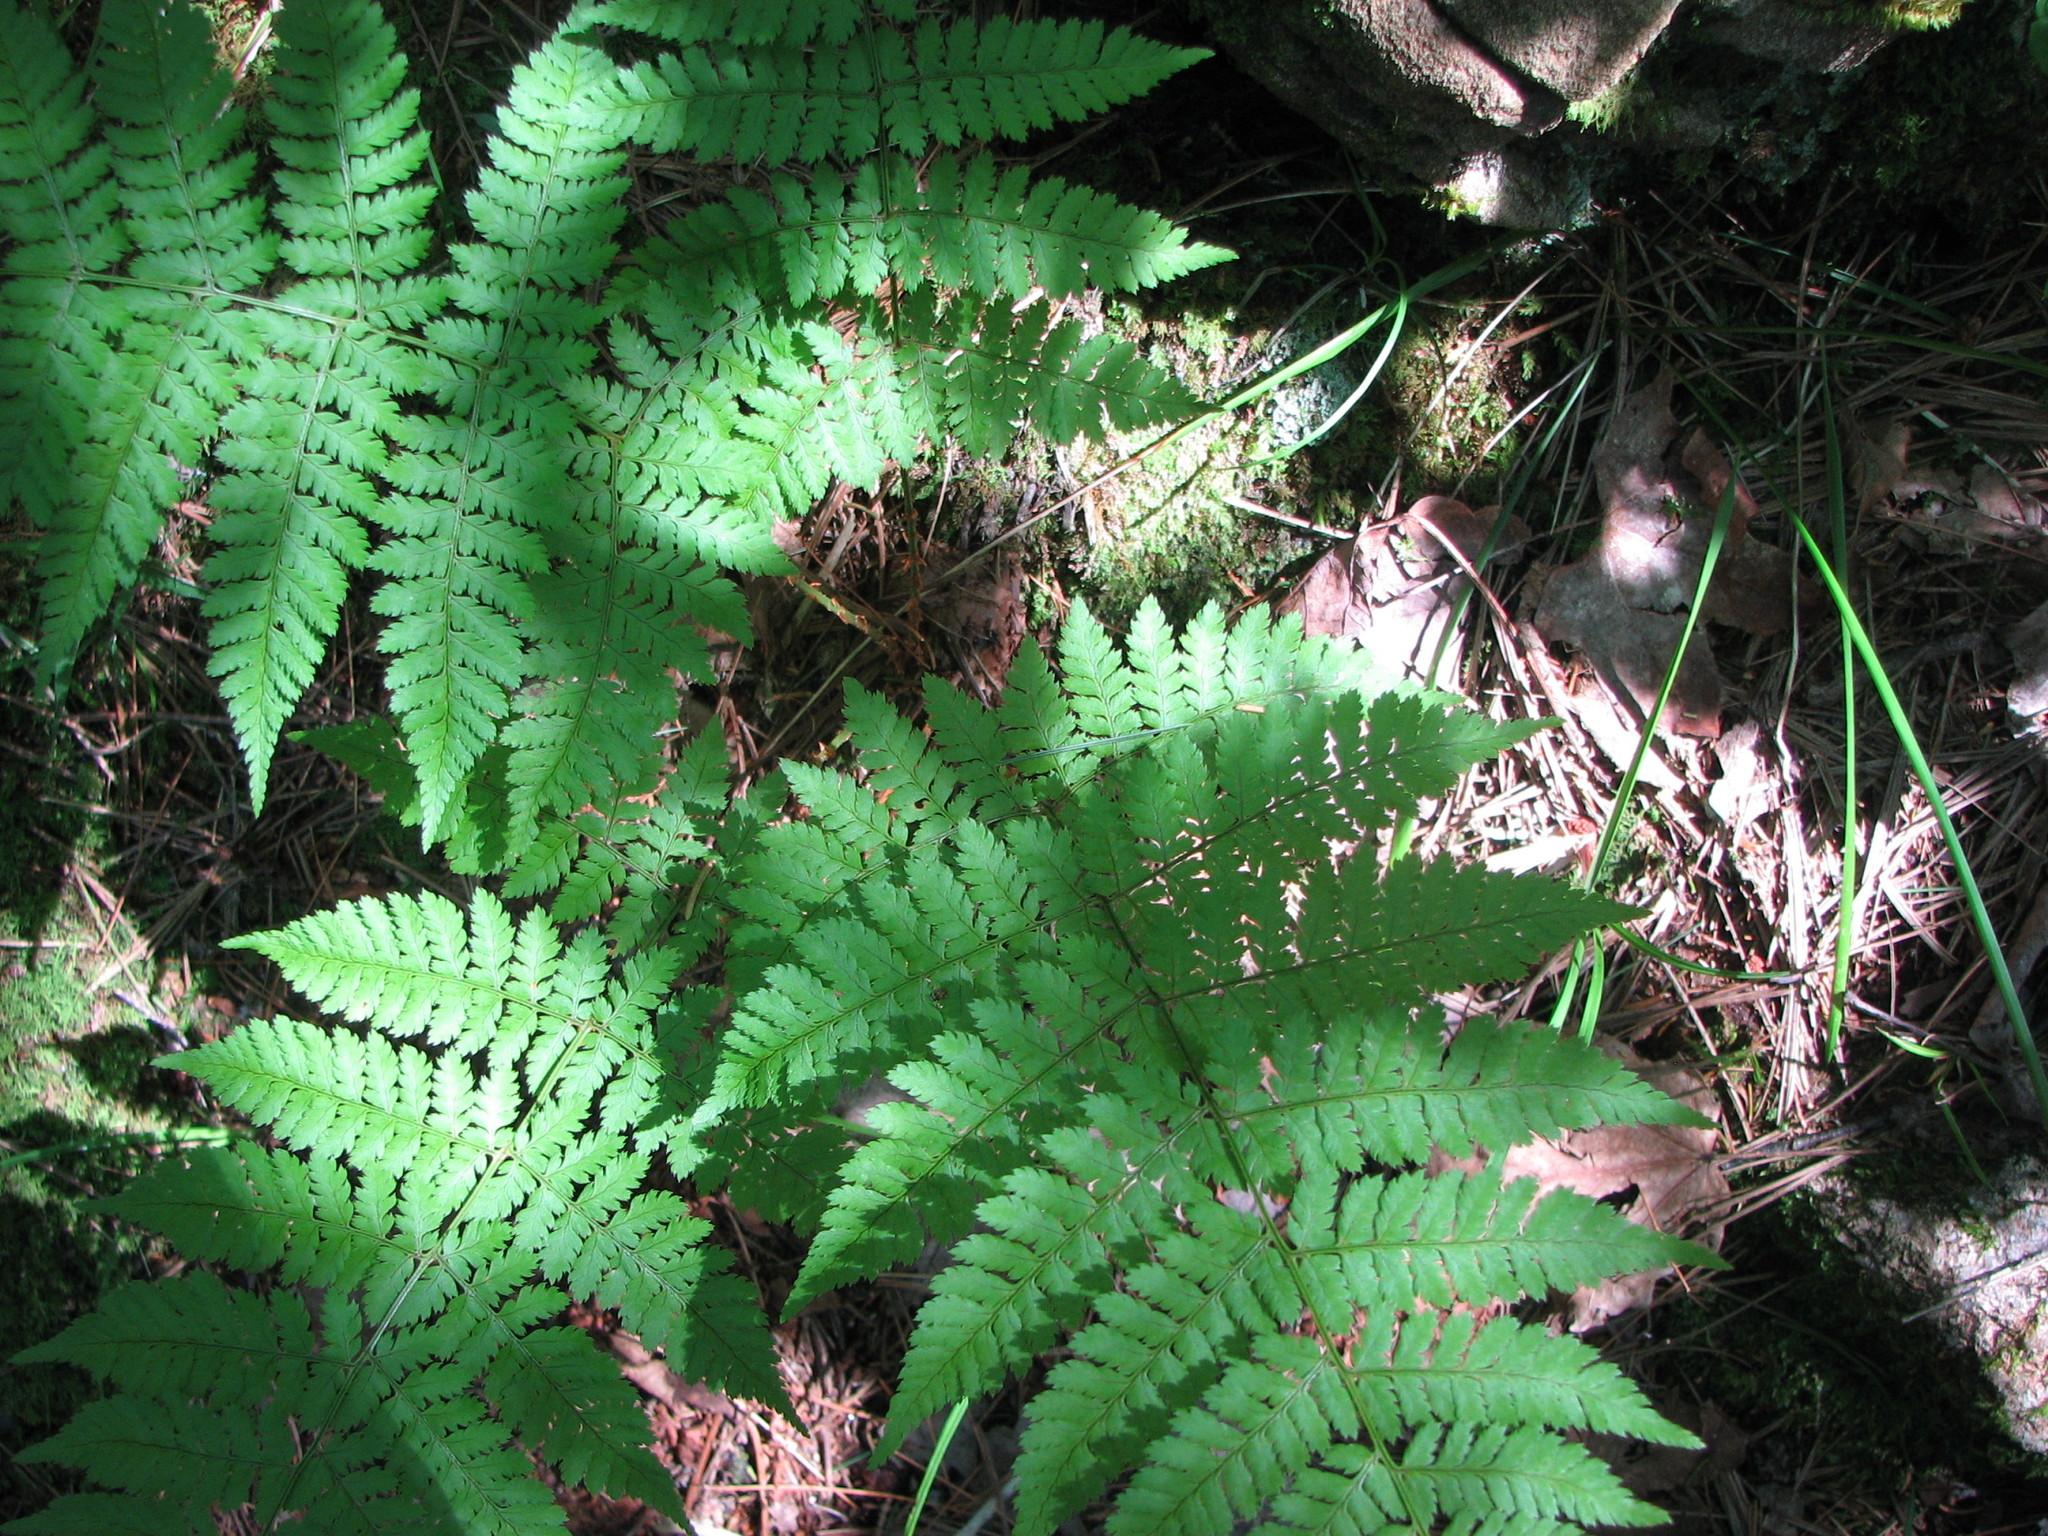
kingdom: Plantae
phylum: Tracheophyta
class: Polypodiopsida
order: Polypodiales
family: Dryopteridaceae
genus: Dryopteris
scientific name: Dryopteris intermedia
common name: Evergreen wood fern
